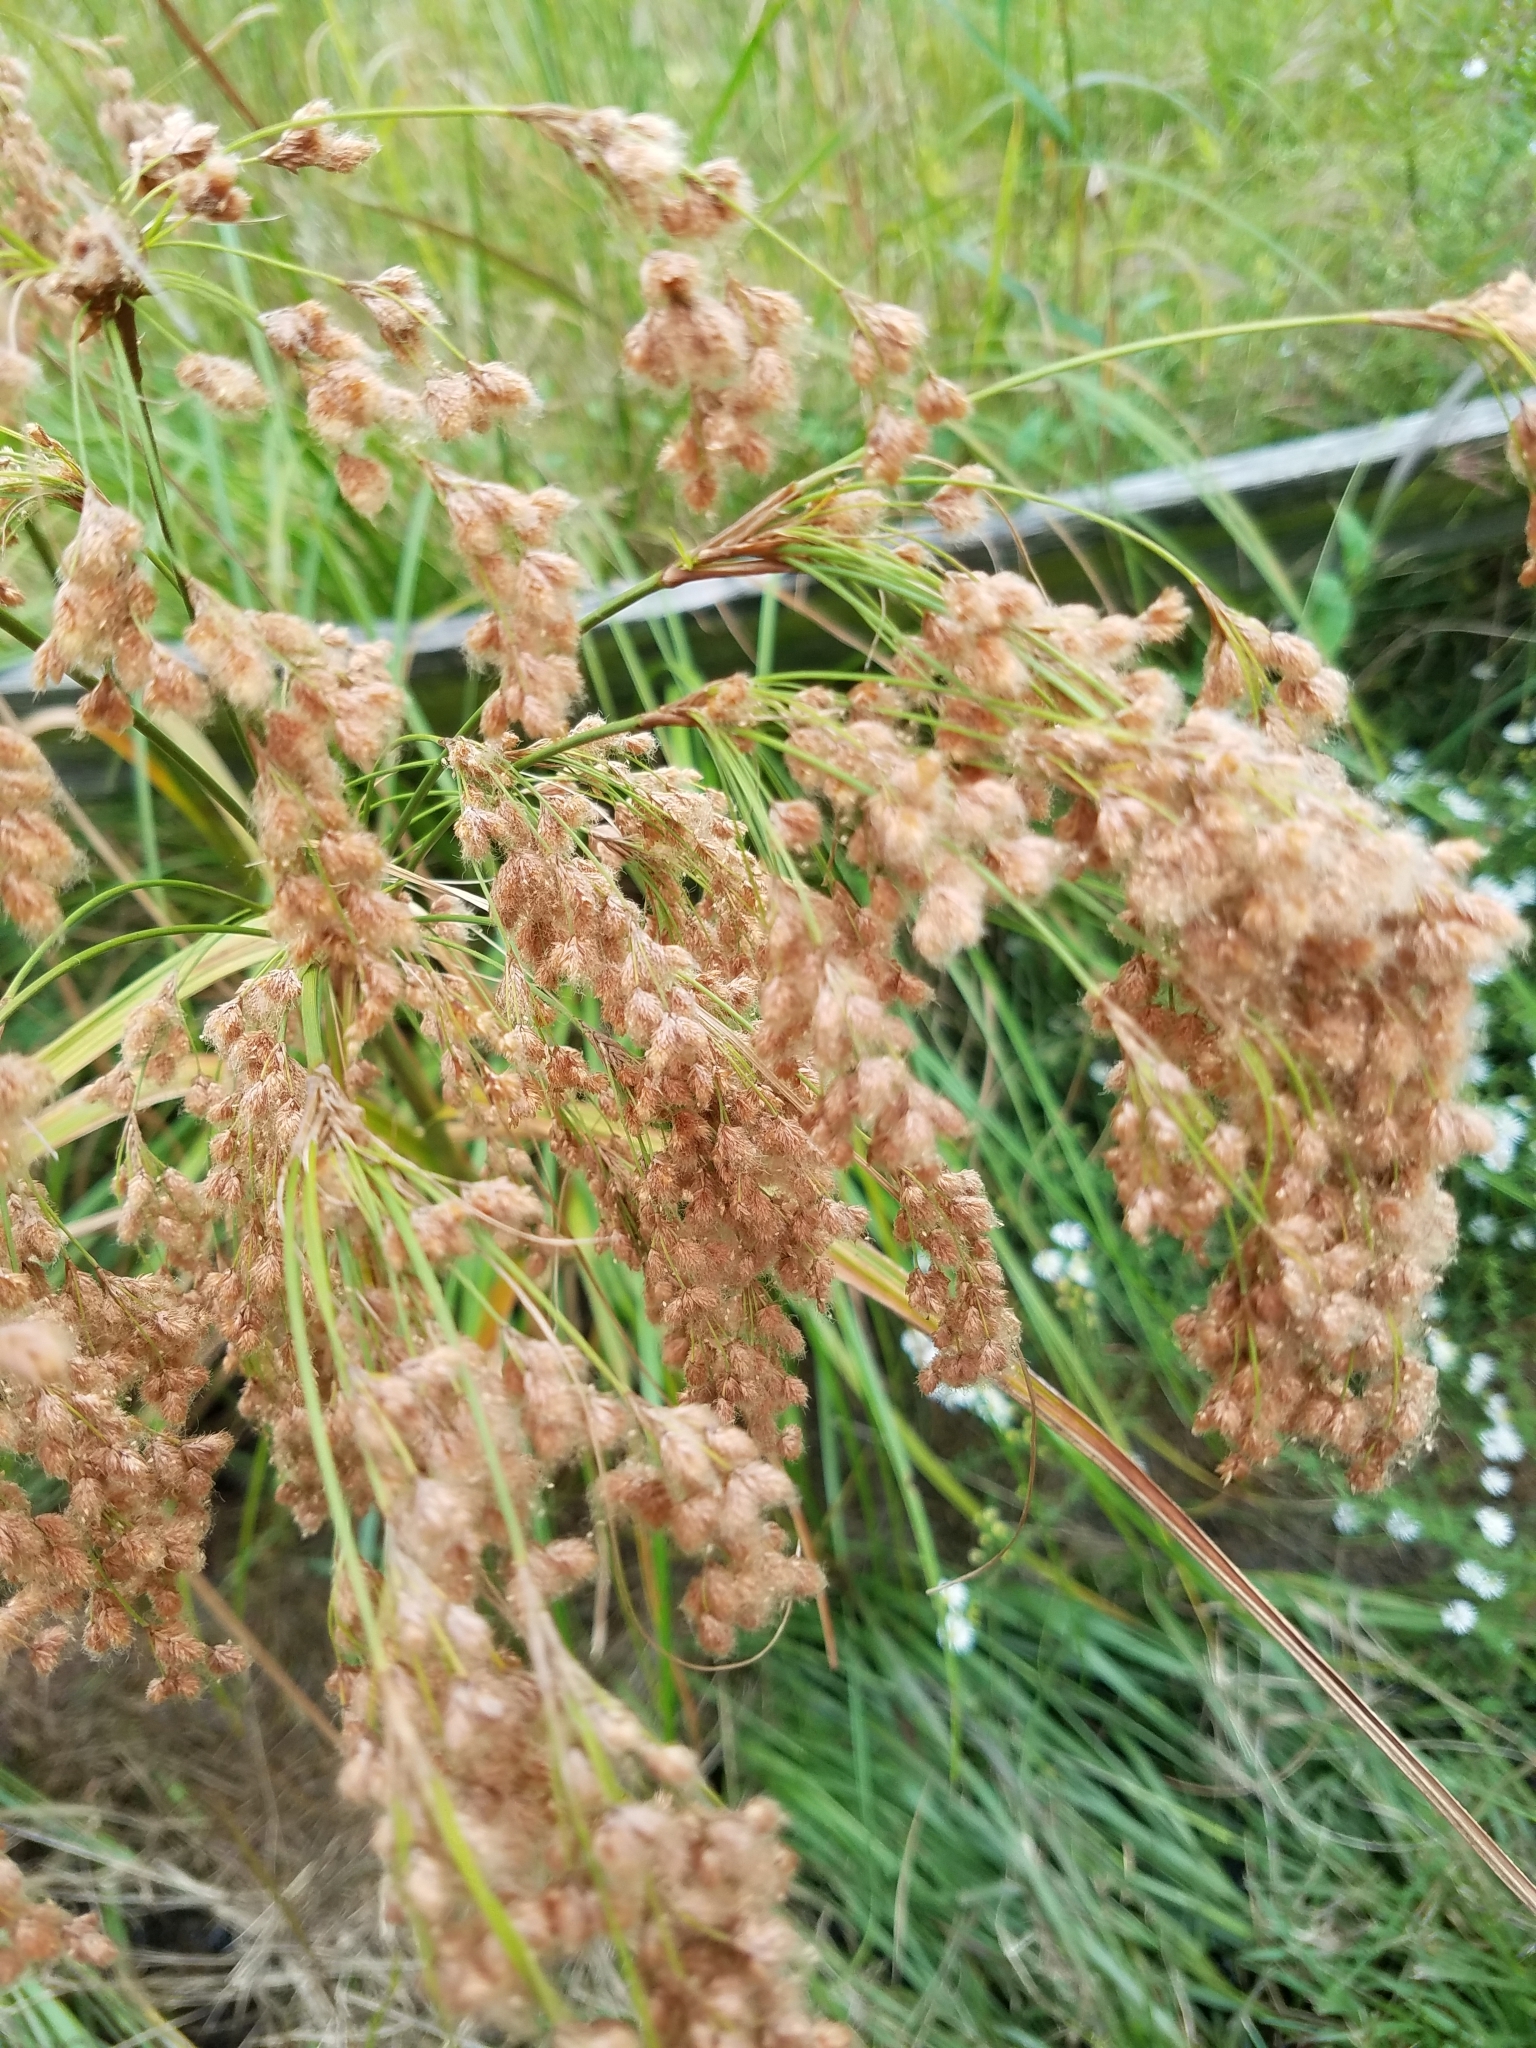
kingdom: Plantae
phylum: Tracheophyta
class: Liliopsida
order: Poales
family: Cyperaceae
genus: Scirpus
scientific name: Scirpus cyperinus
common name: Black-sheathed bulrush
